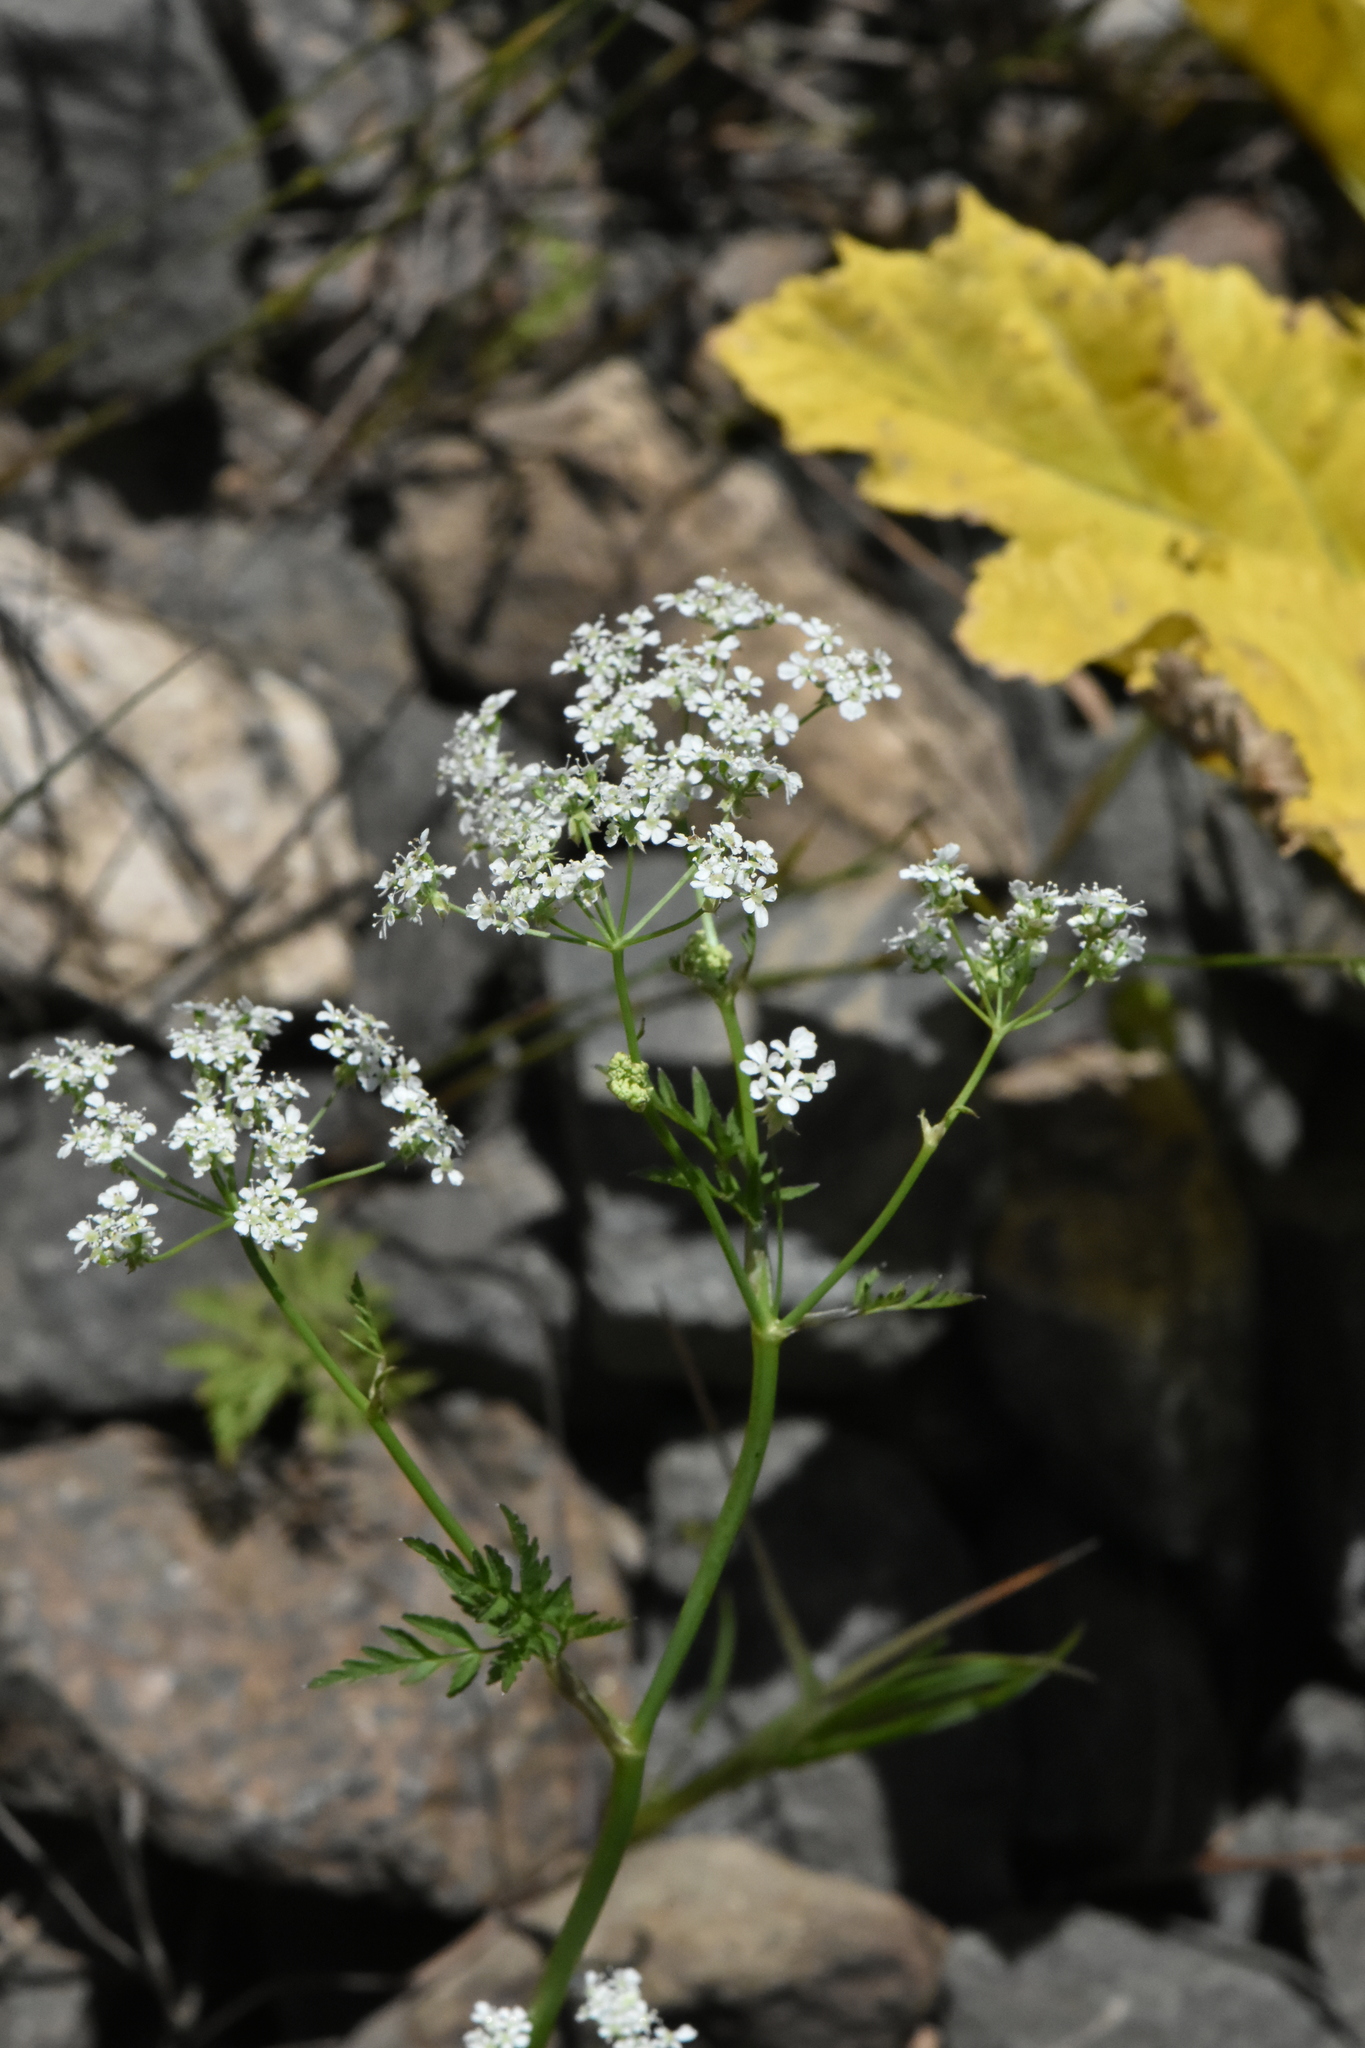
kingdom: Plantae
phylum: Tracheophyta
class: Magnoliopsida
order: Apiales
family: Apiaceae
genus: Anthriscus
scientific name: Anthriscus sylvestris
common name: Cow parsley
